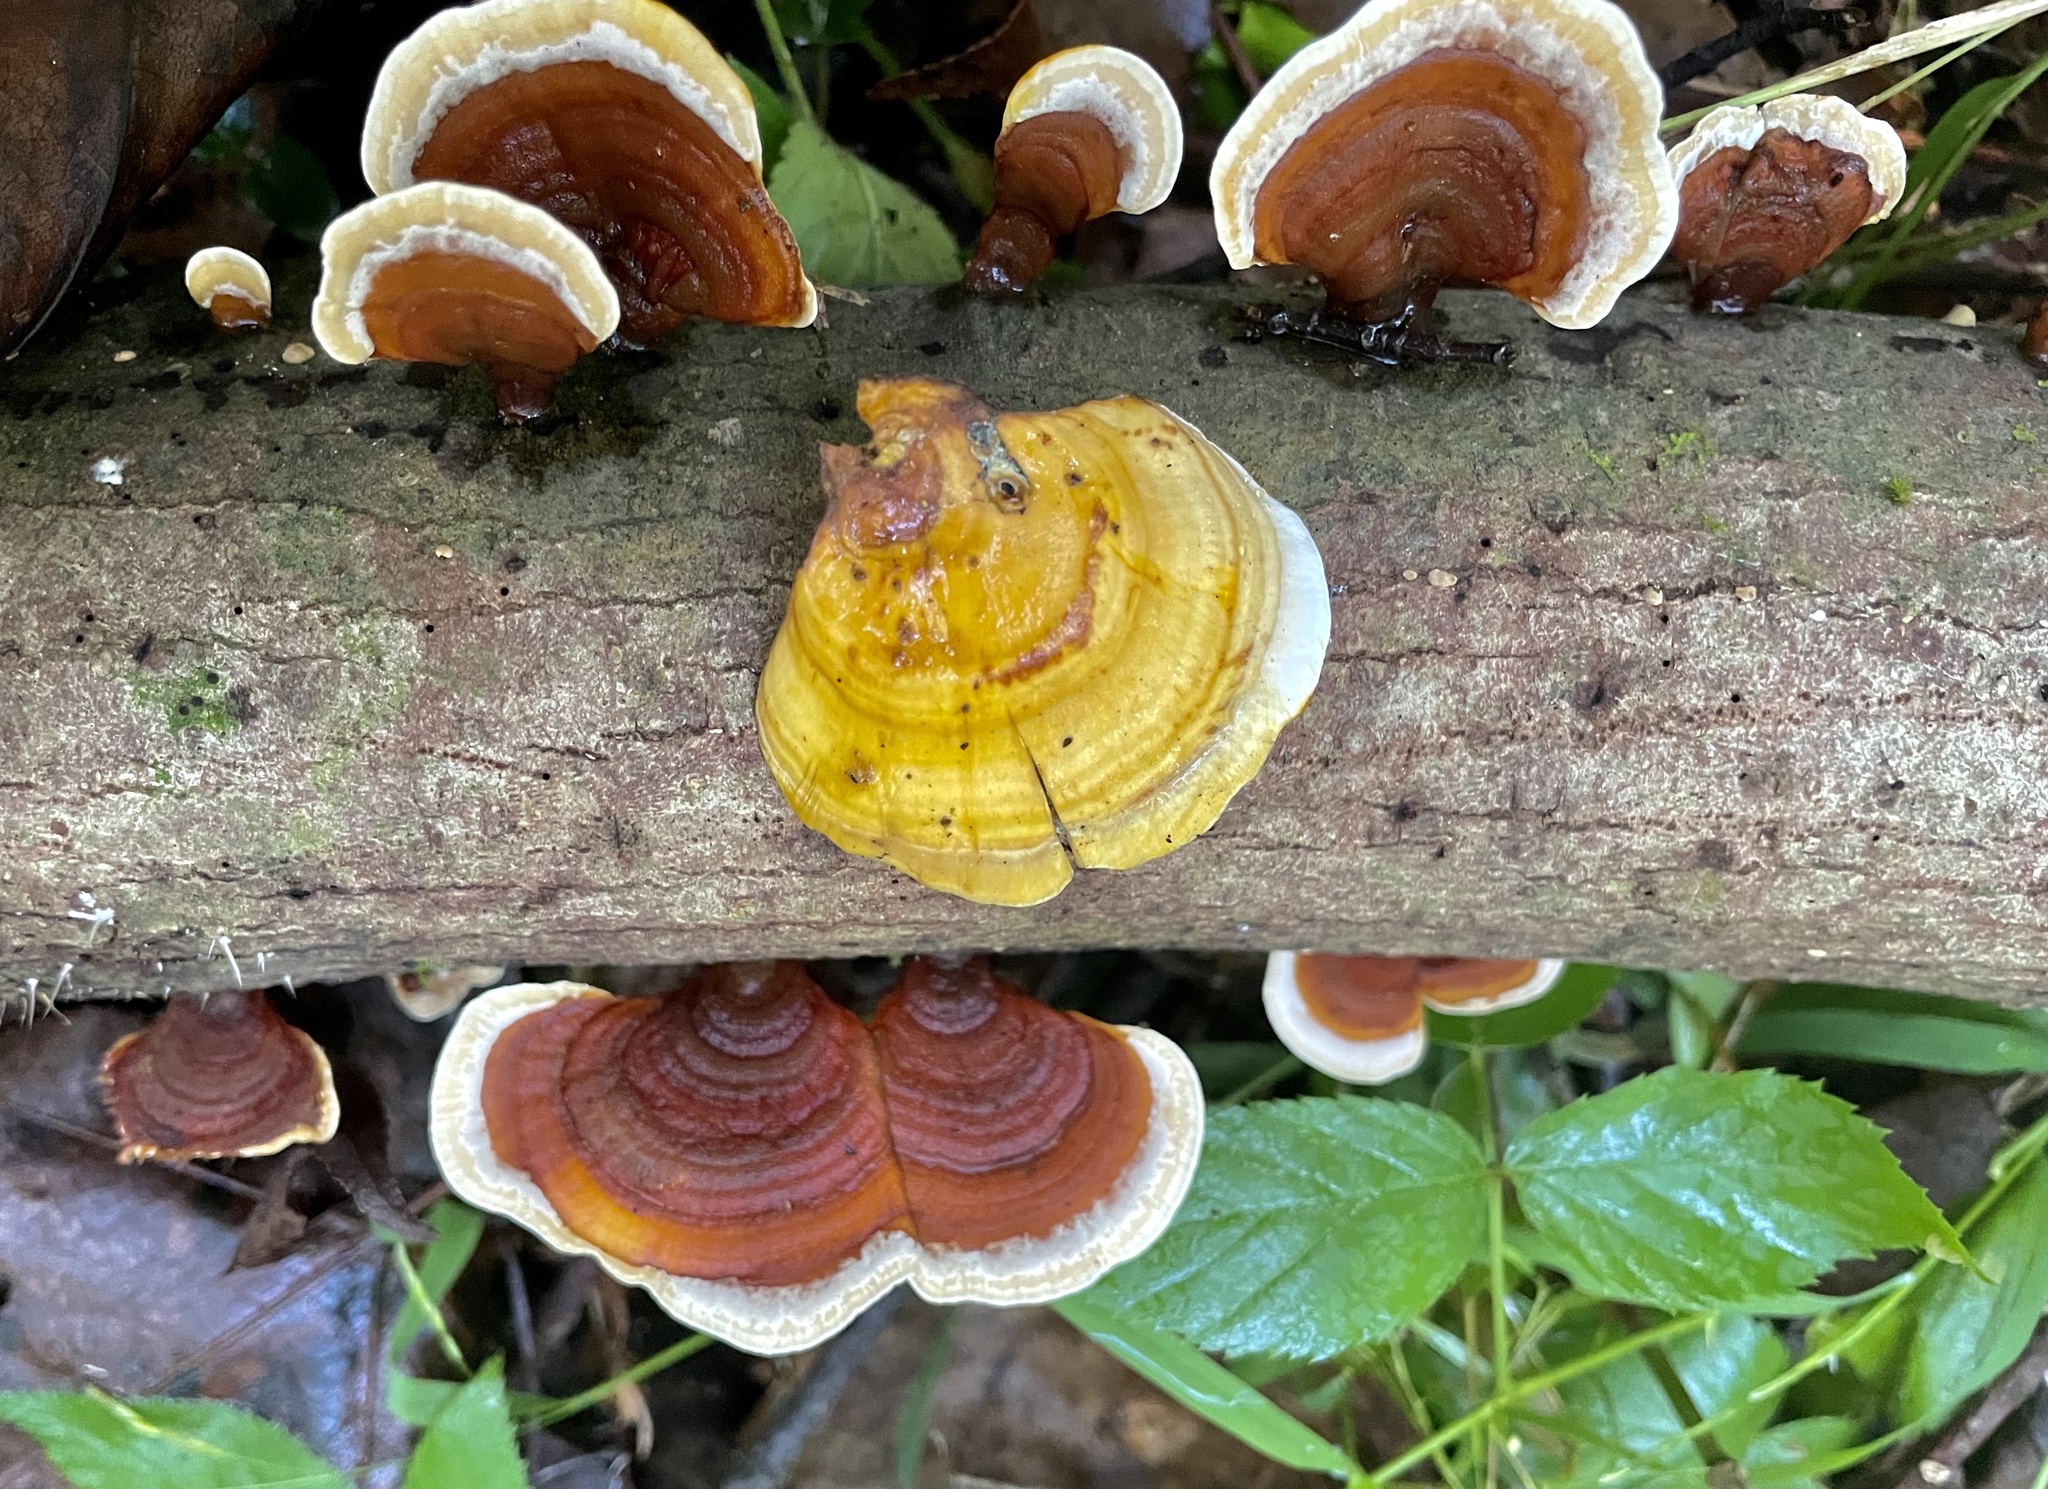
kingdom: Fungi
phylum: Basidiomycota
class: Agaricomycetes
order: Russulales
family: Stereaceae
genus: Stereum
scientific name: Stereum lobatum
